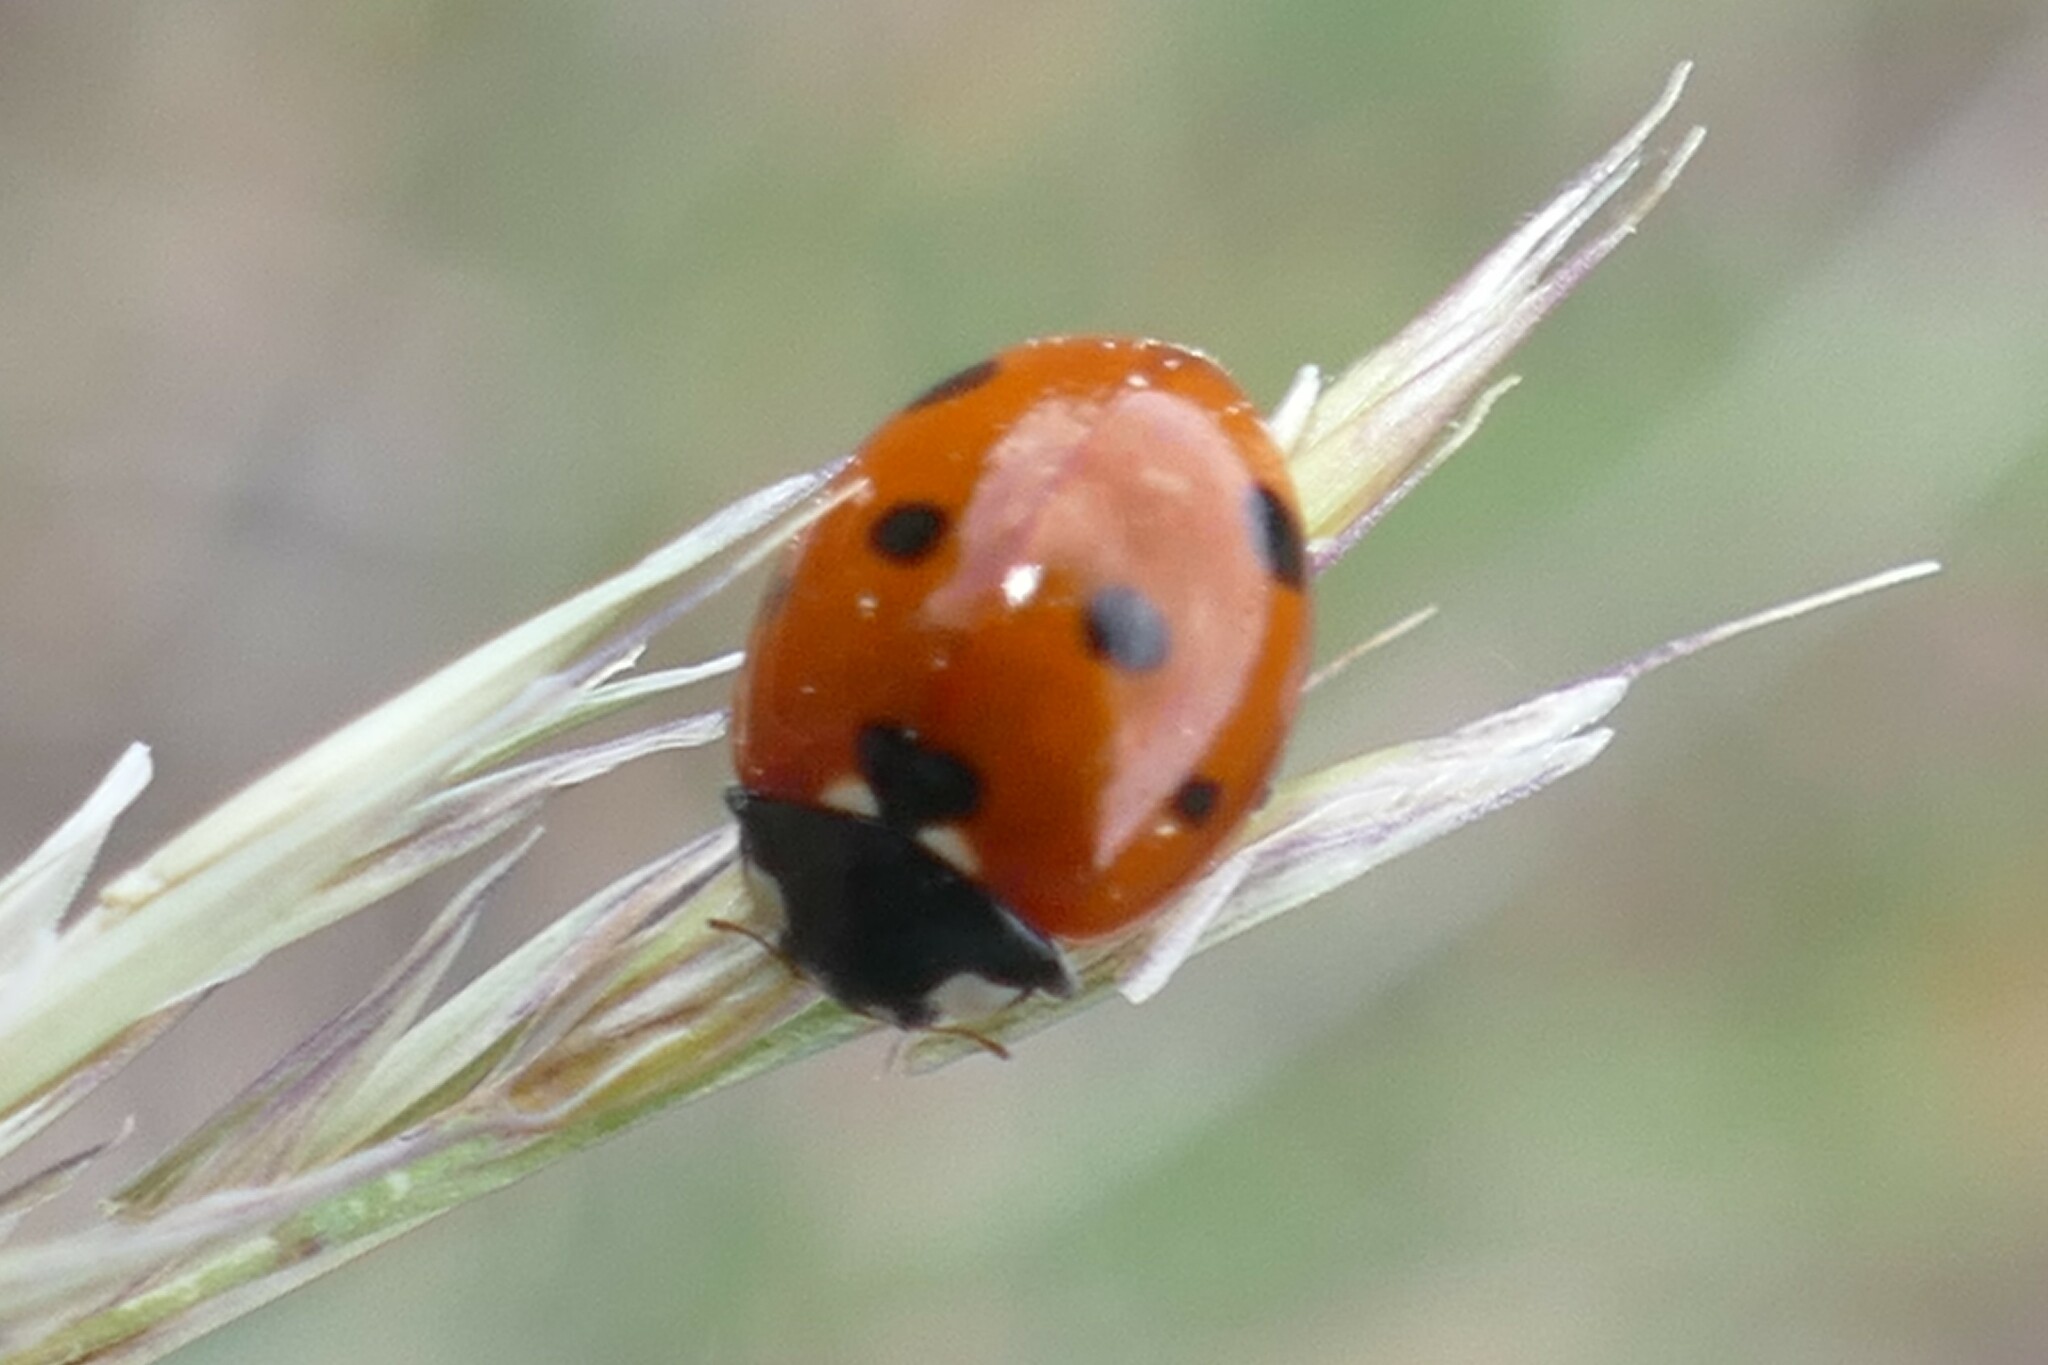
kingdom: Animalia
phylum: Arthropoda
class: Insecta
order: Coleoptera
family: Coccinellidae
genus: Coccinella
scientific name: Coccinella septempunctata
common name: Sevenspotted lady beetle
